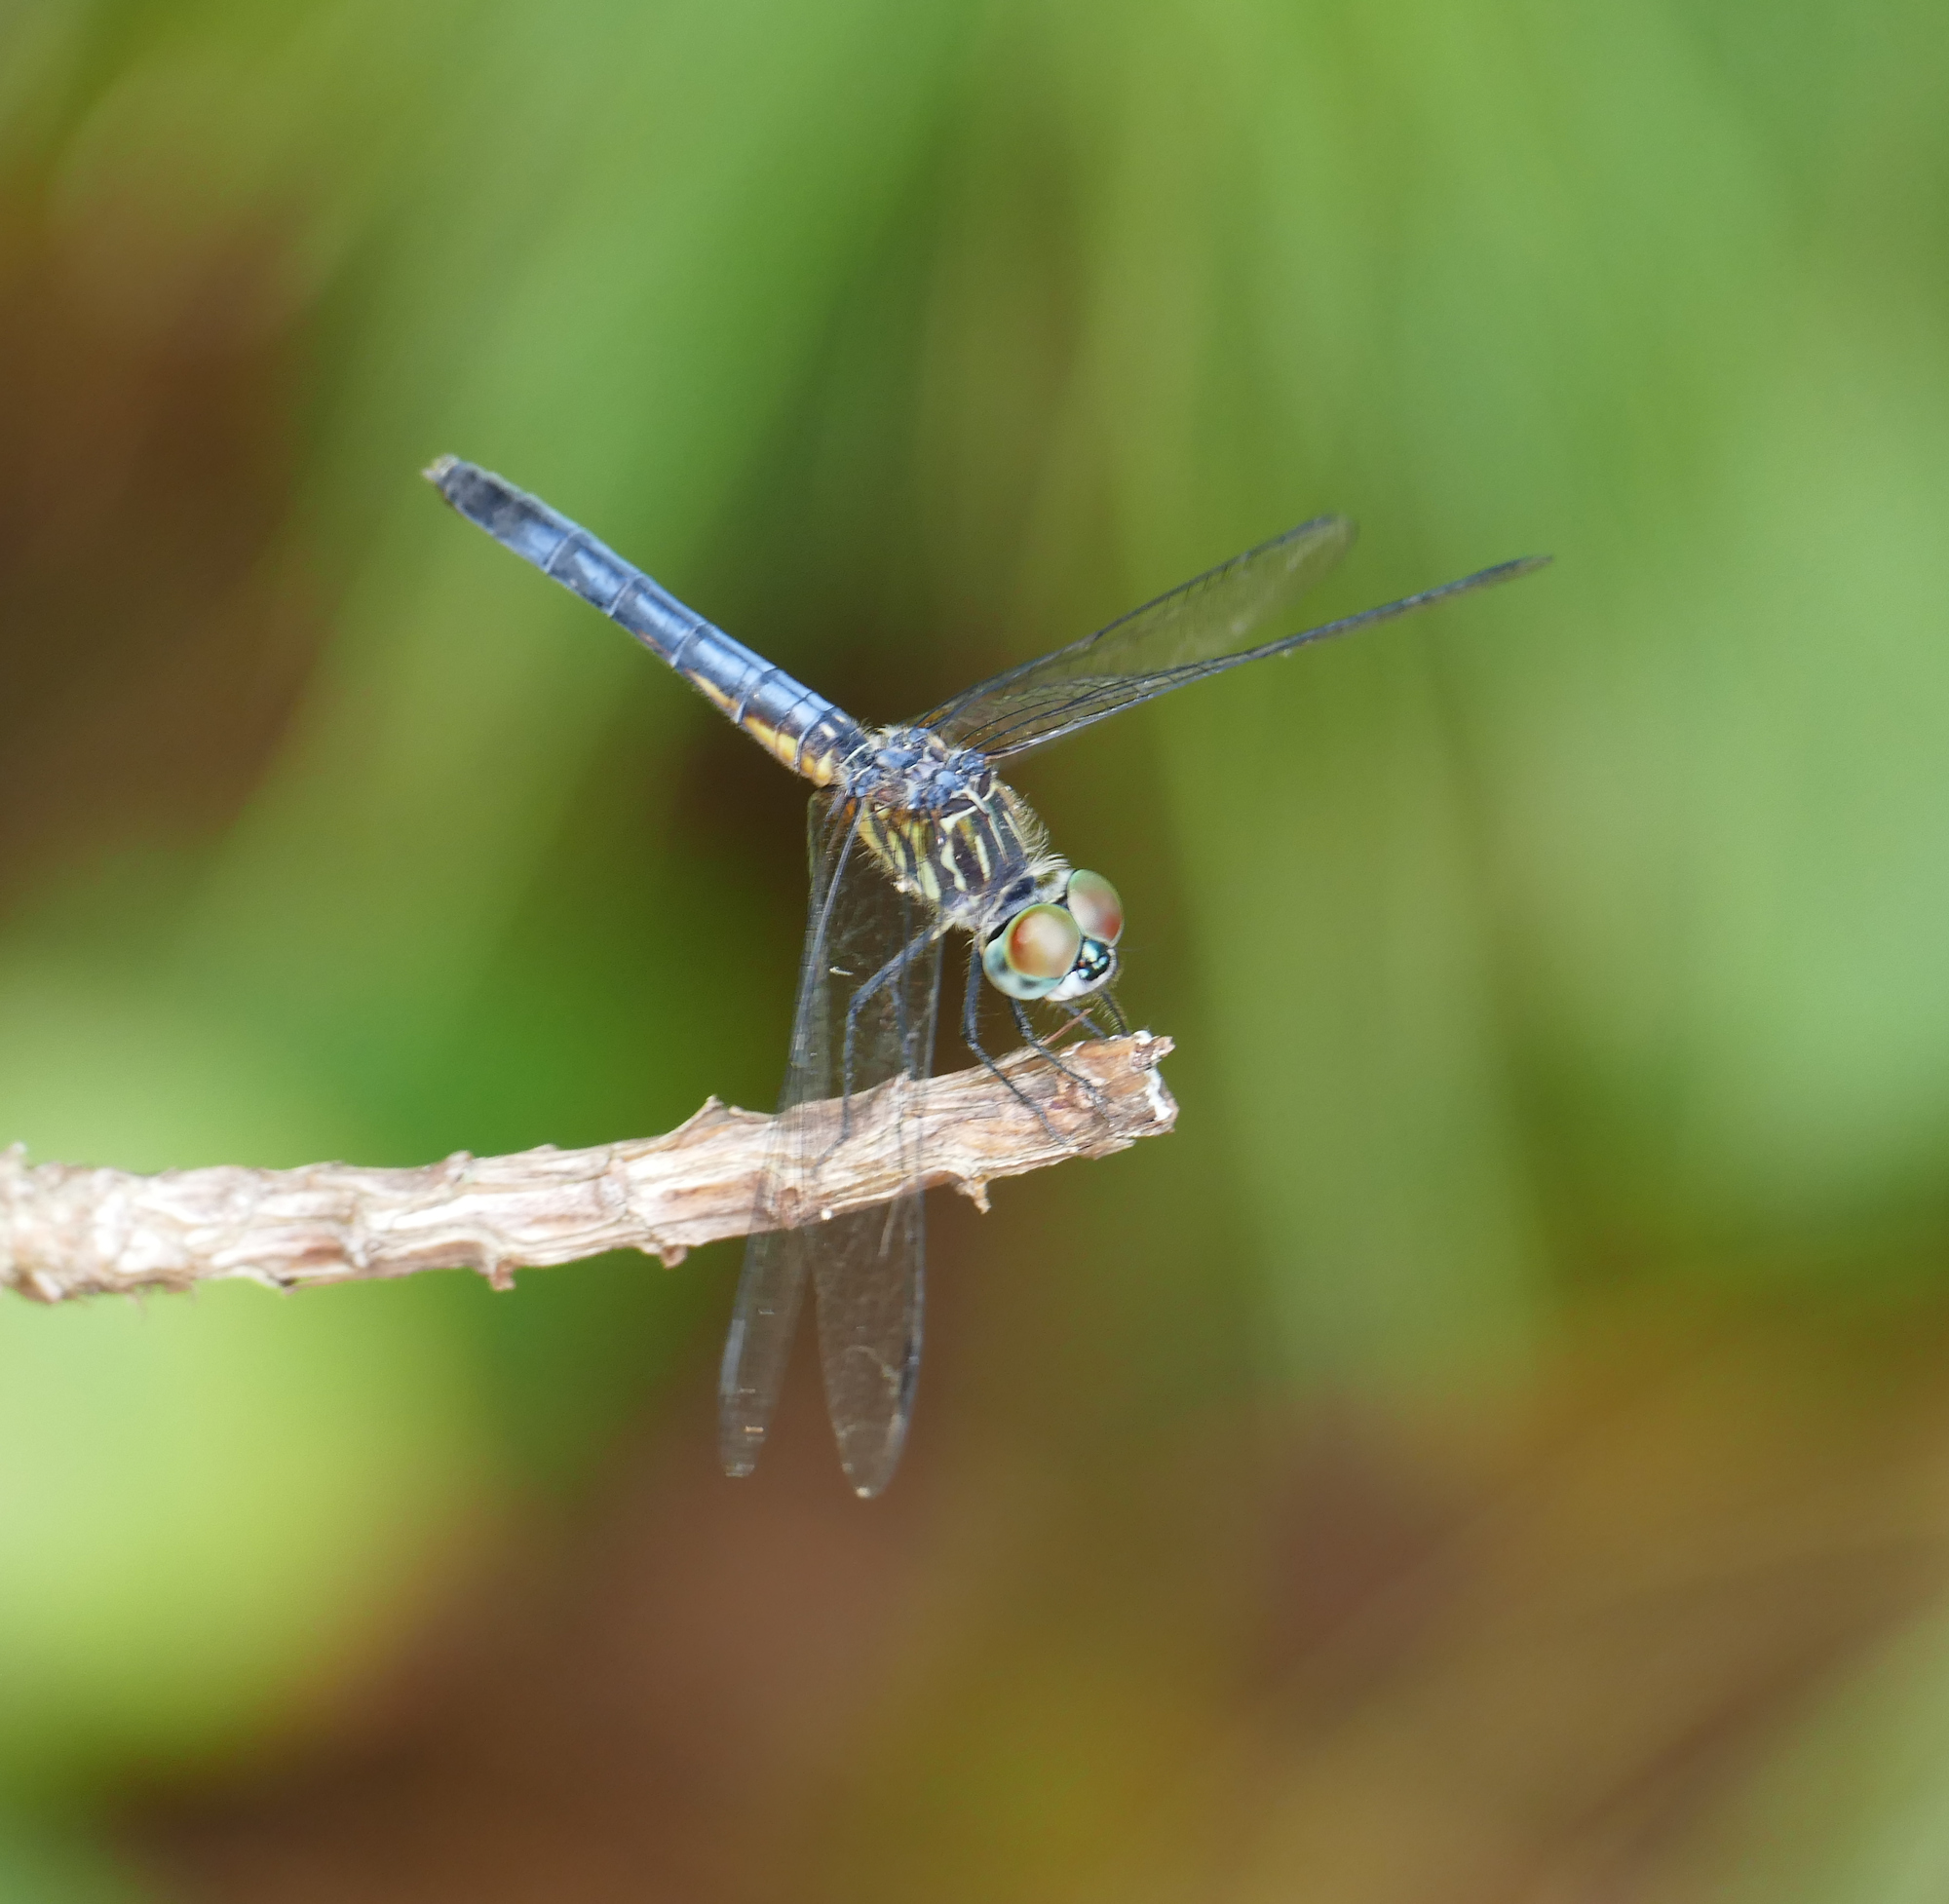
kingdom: Animalia
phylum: Arthropoda
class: Insecta
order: Odonata
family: Libellulidae
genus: Pachydiplax
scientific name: Pachydiplax longipennis
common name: Blue dasher
